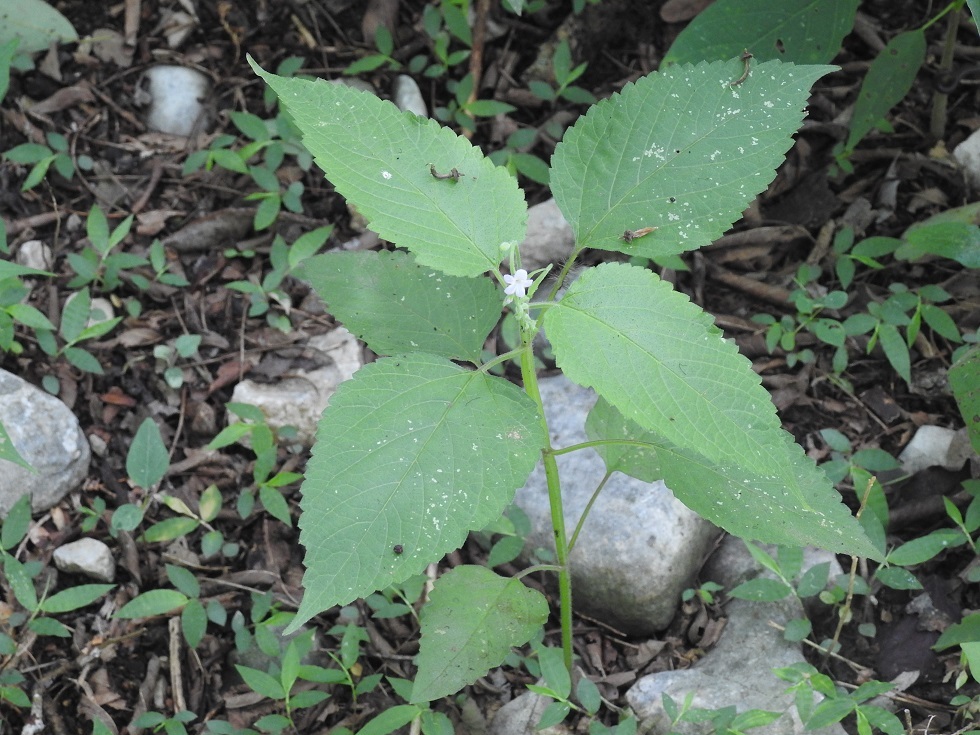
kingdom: Plantae
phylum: Tracheophyta
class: Magnoliopsida
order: Lamiales
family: Verbenaceae
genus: Priva
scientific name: Priva lappulacea
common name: Fasten-'pon-coat
